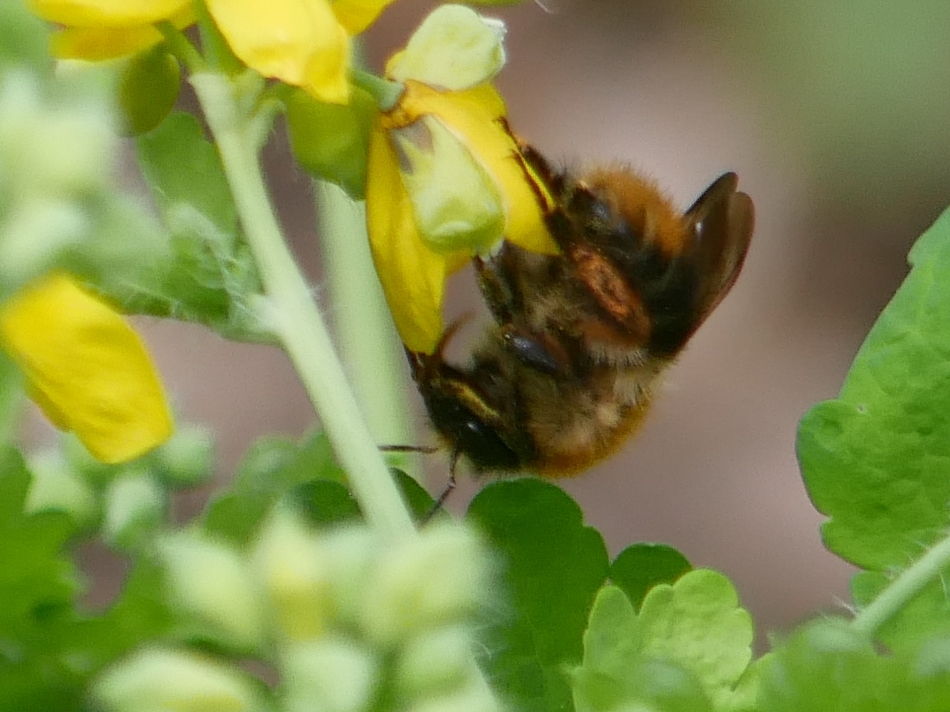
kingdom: Animalia
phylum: Arthropoda
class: Insecta
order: Hymenoptera
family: Apidae
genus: Bombus
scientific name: Bombus pascuorum
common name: Common carder bee
